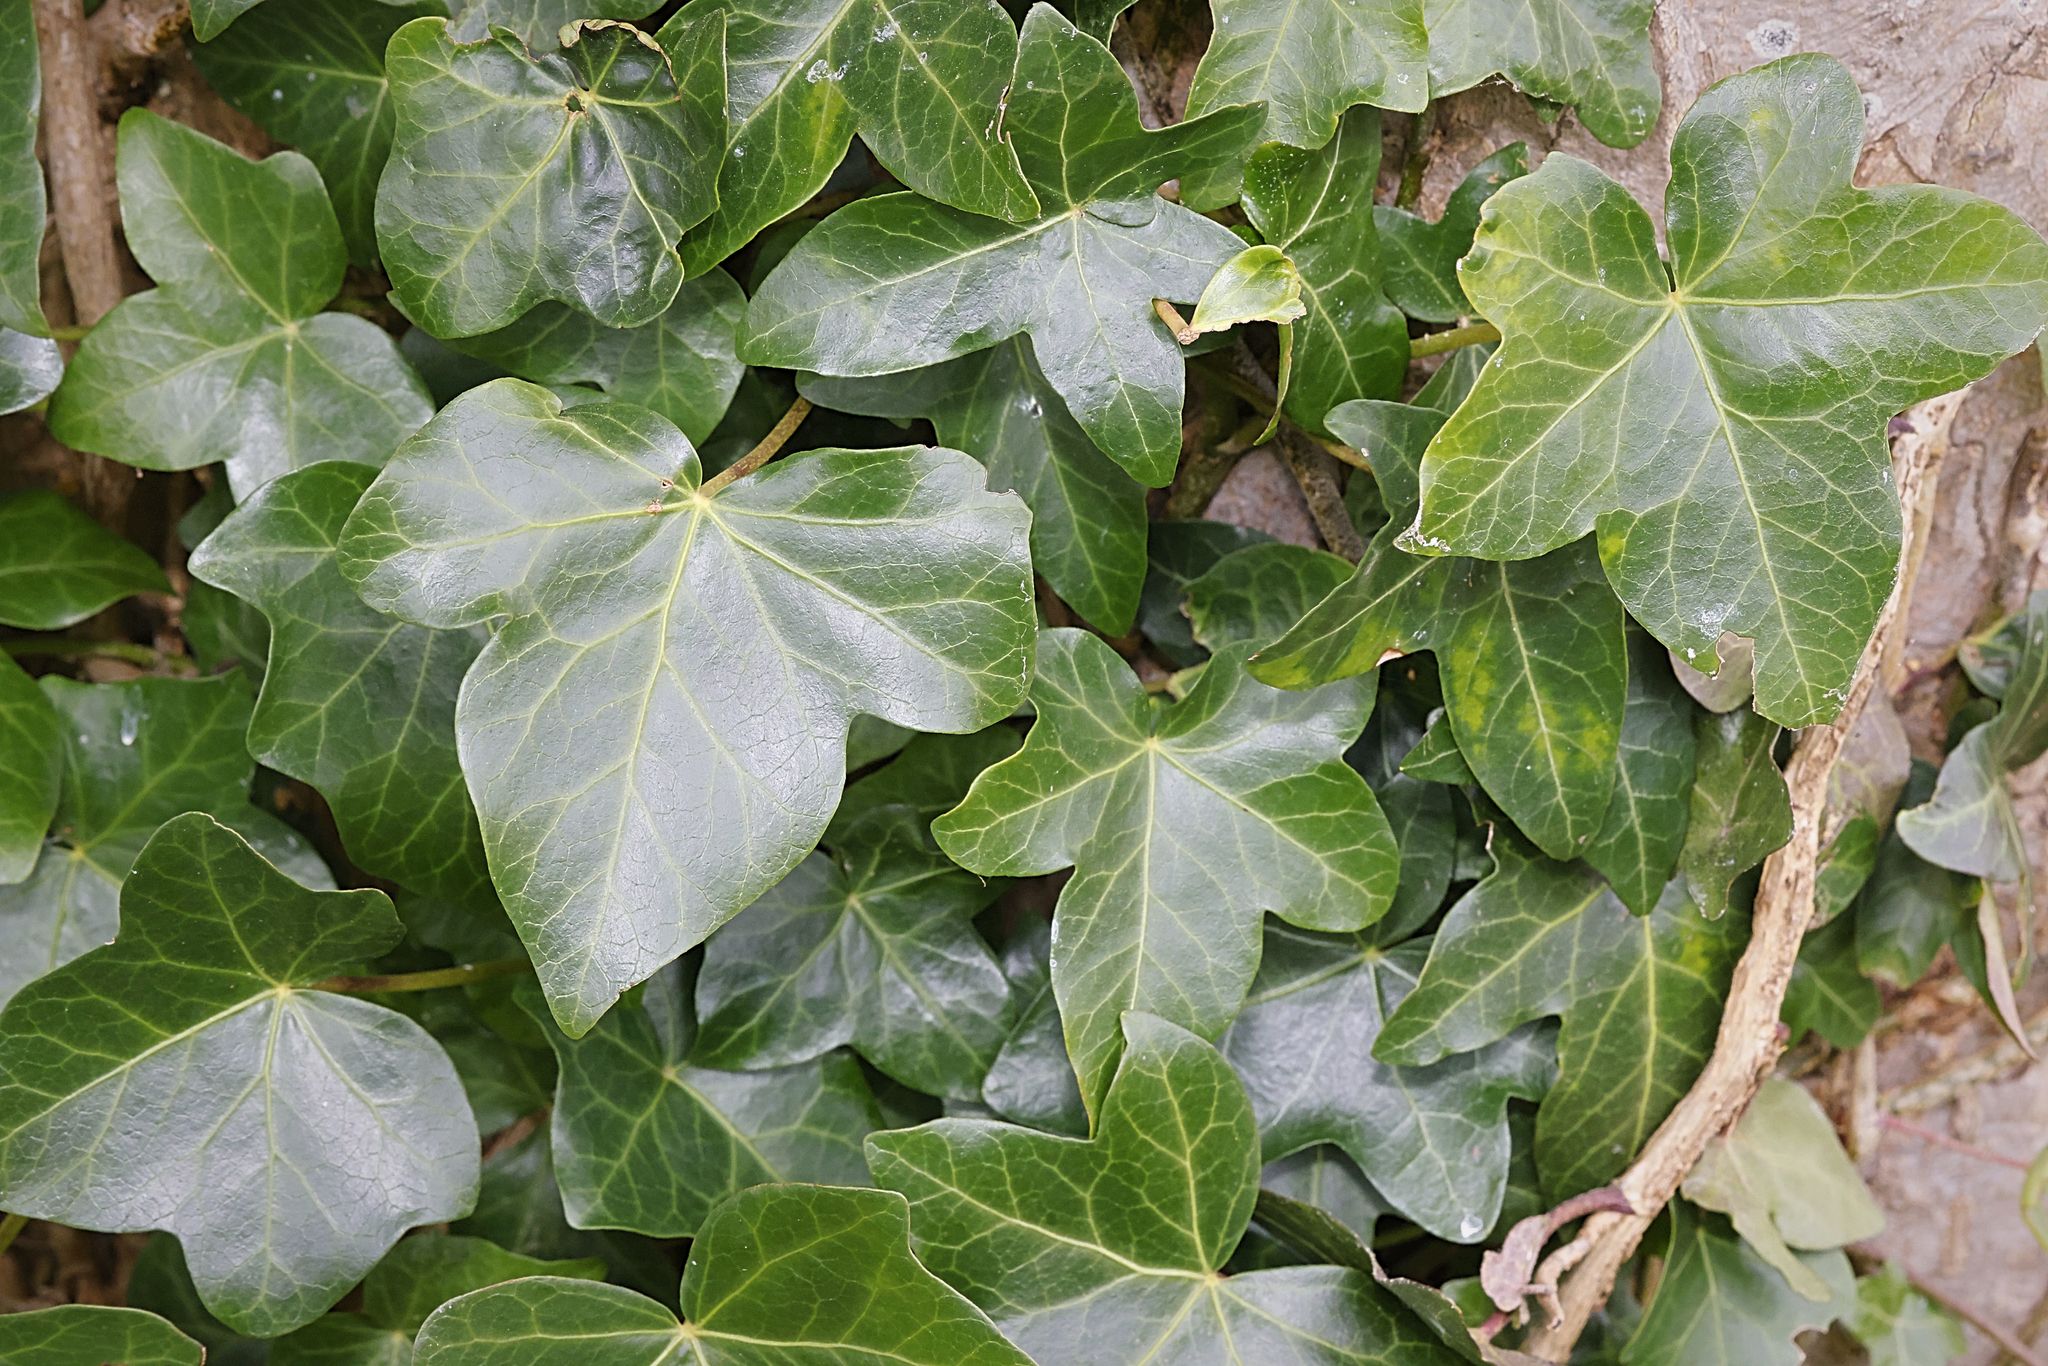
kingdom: Plantae
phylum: Tracheophyta
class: Magnoliopsida
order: Apiales
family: Araliaceae
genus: Hedera
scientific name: Hedera helix
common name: Ivy
